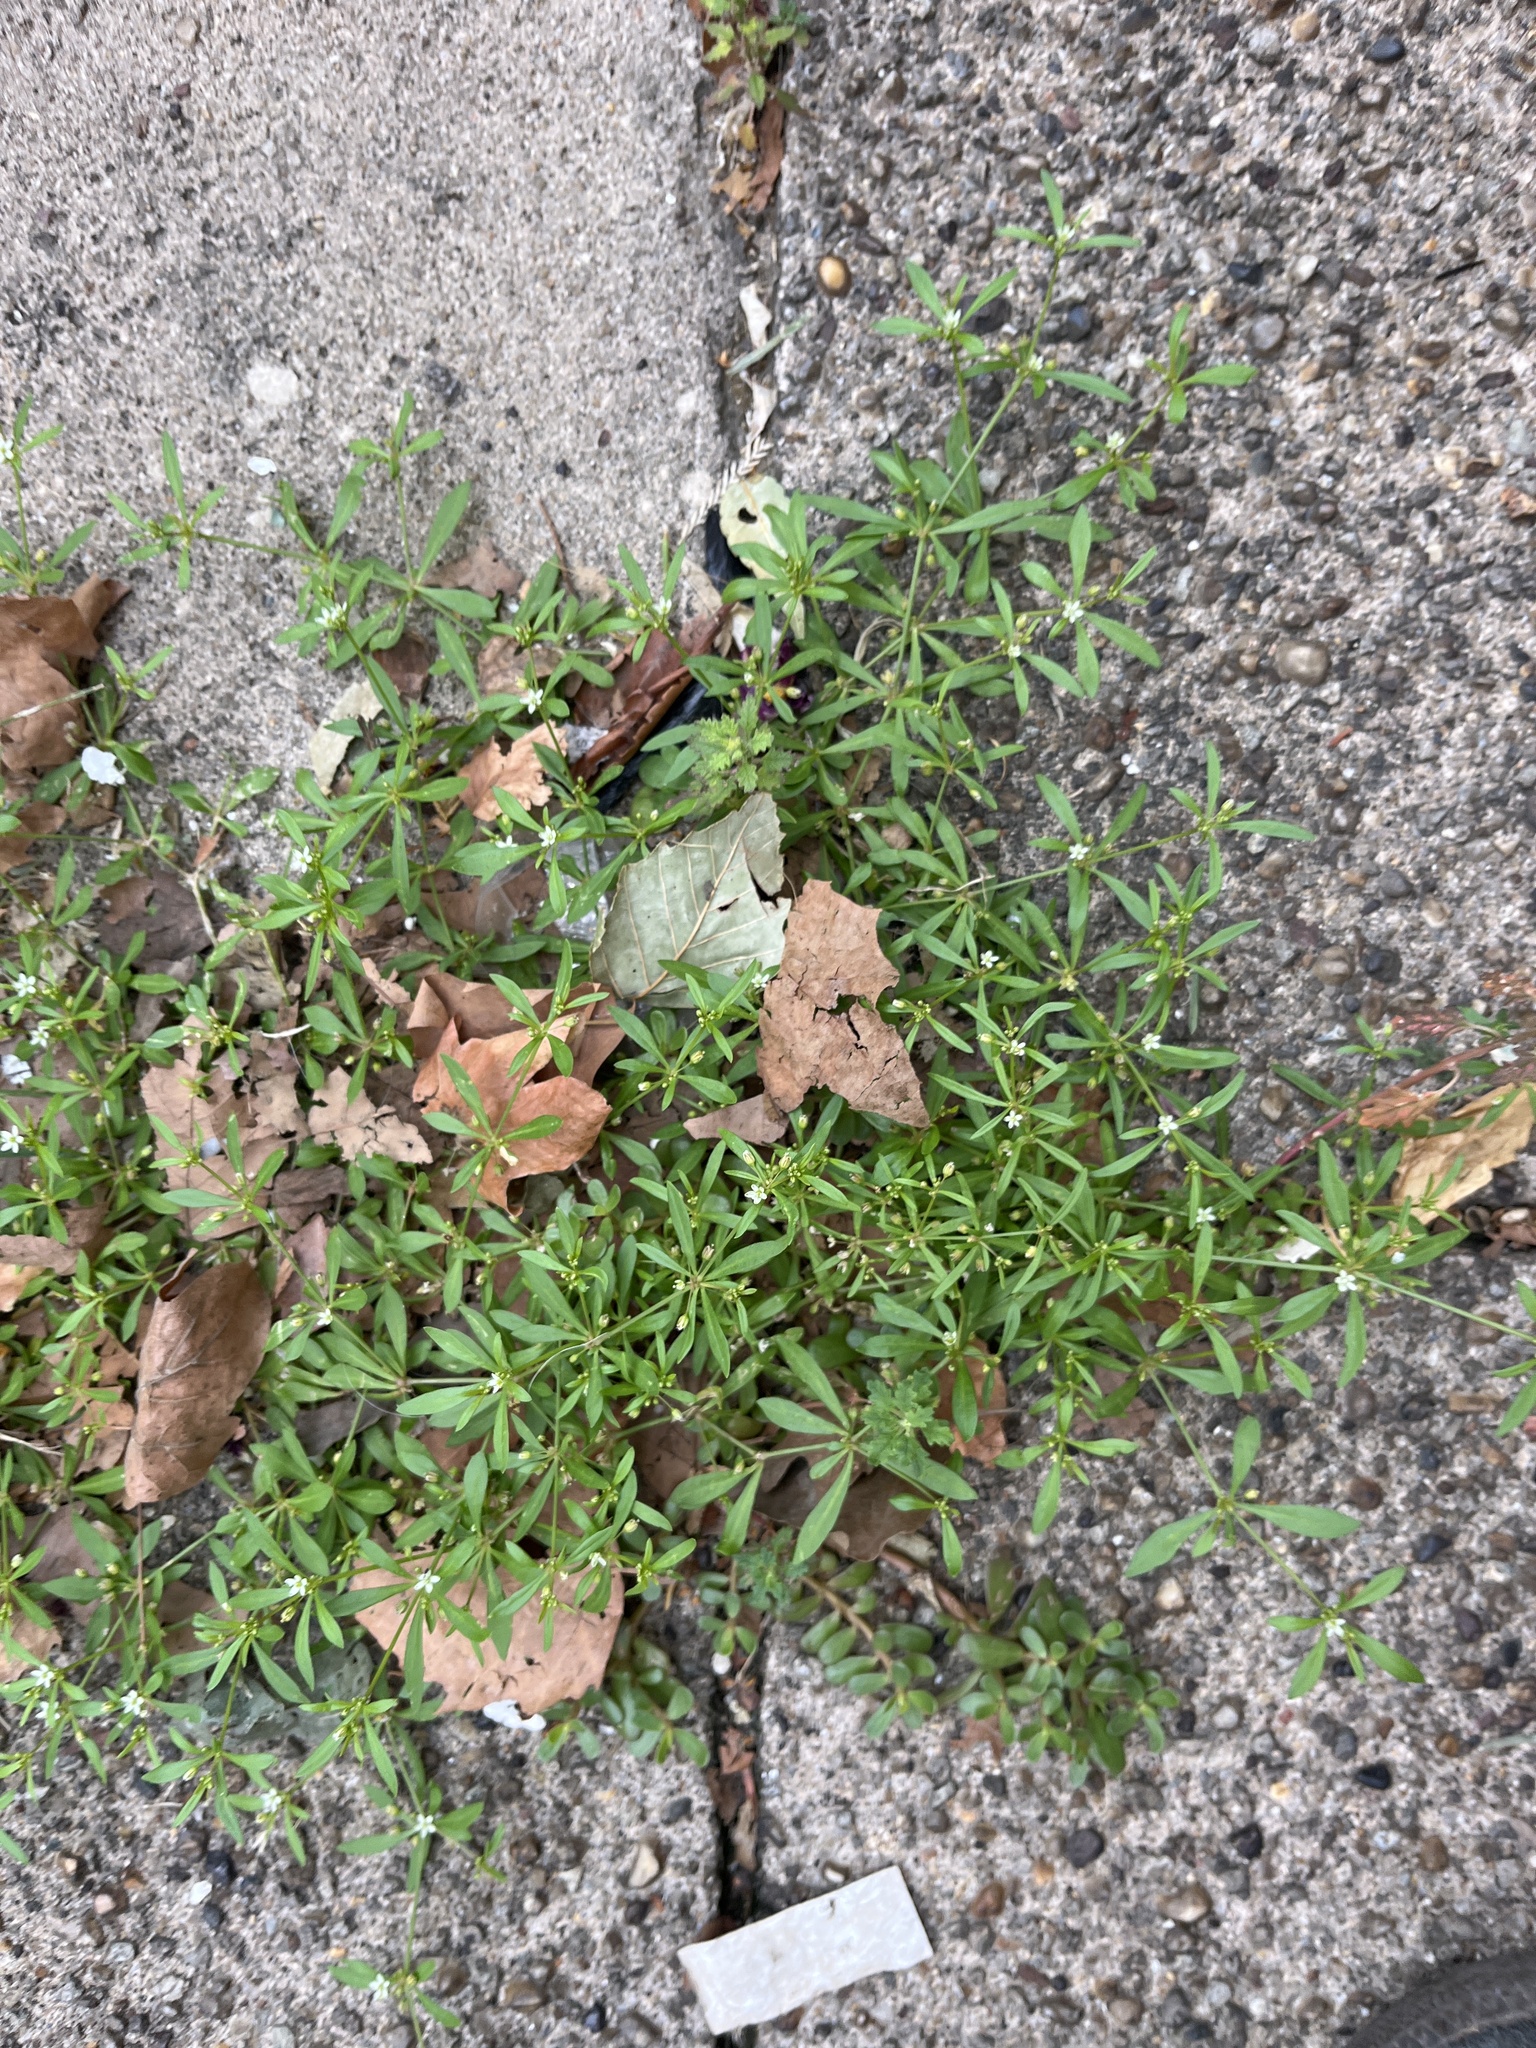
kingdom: Plantae
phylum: Tracheophyta
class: Magnoliopsida
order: Caryophyllales
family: Molluginaceae
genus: Mollugo
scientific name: Mollugo verticillata
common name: Green carpetweed
